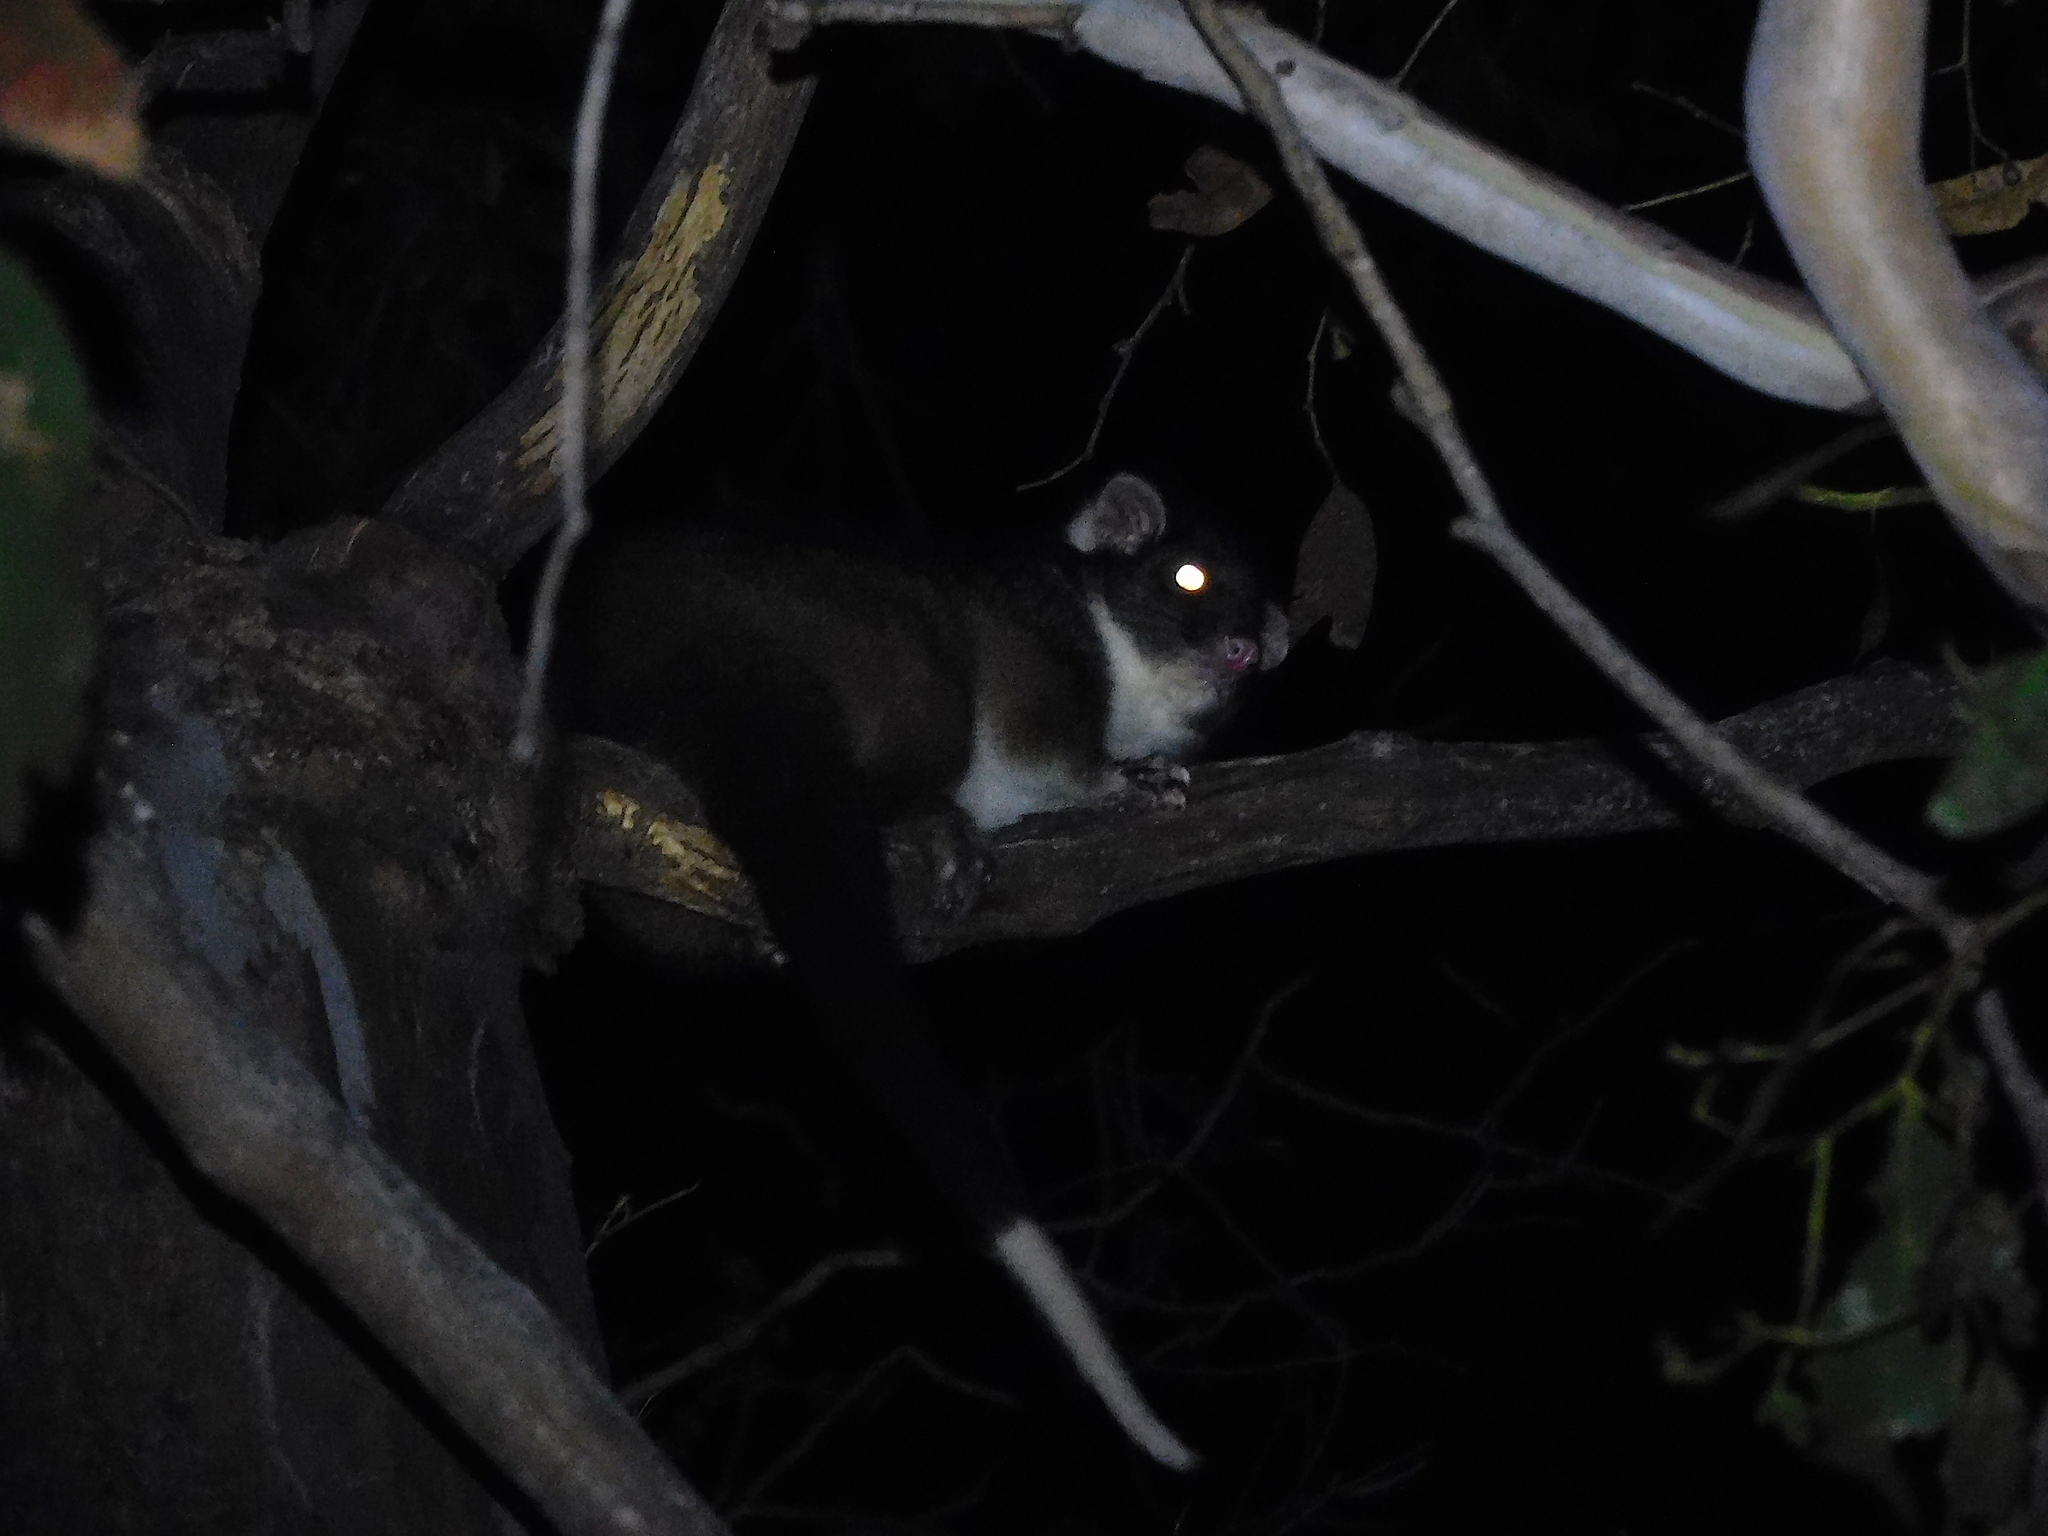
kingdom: Animalia
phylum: Chordata
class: Mammalia
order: Diprotodontia
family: Pseudocheiridae
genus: Pseudocheirus
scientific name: Pseudocheirus peregrinus
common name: Common ringtail possum
